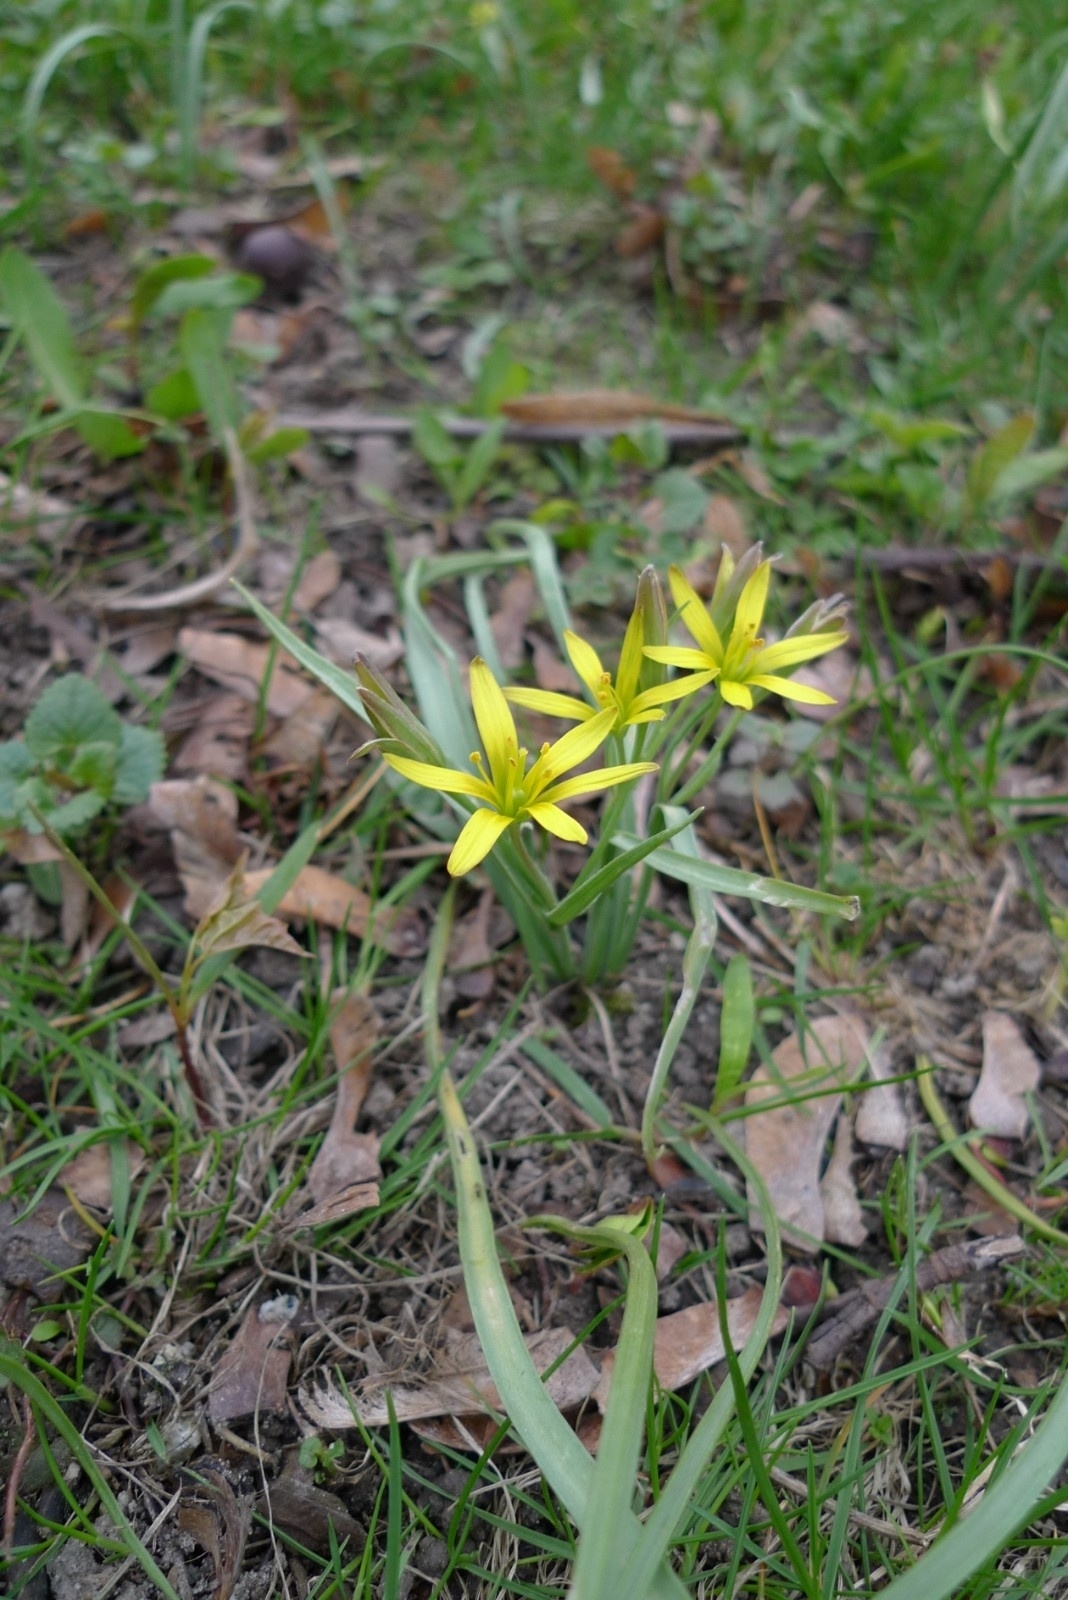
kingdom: Plantae
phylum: Tracheophyta
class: Liliopsida
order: Liliales
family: Liliaceae
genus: Gagea
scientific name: Gagea pratensis
